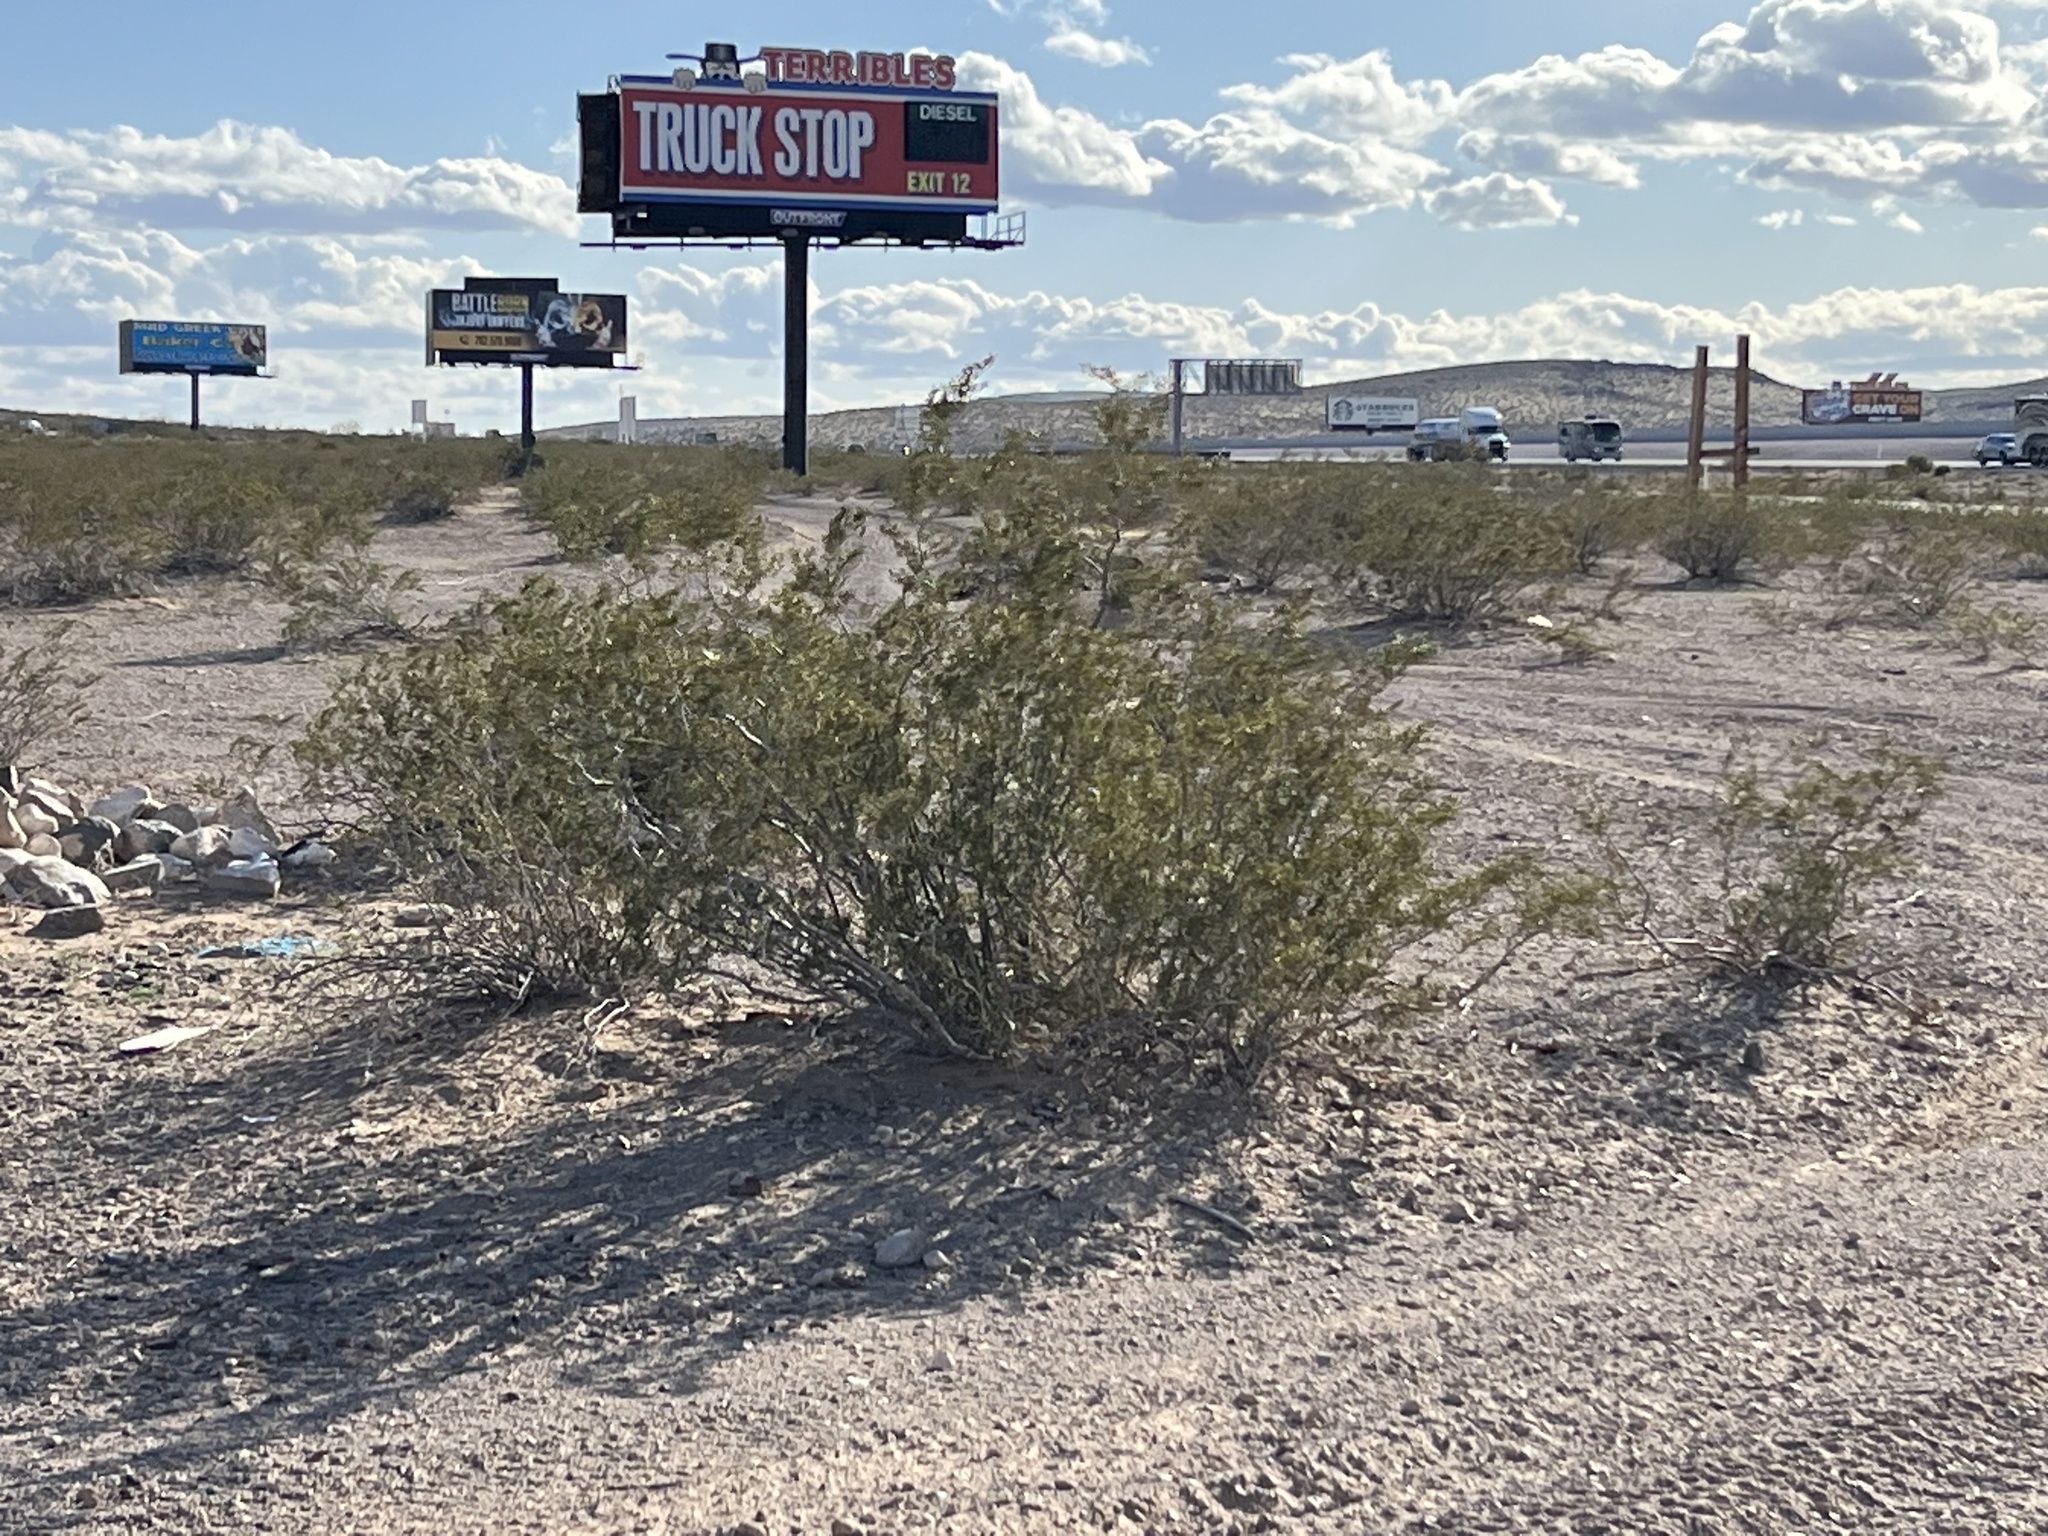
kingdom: Plantae
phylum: Tracheophyta
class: Magnoliopsida
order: Zygophyllales
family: Zygophyllaceae
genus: Larrea
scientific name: Larrea tridentata
